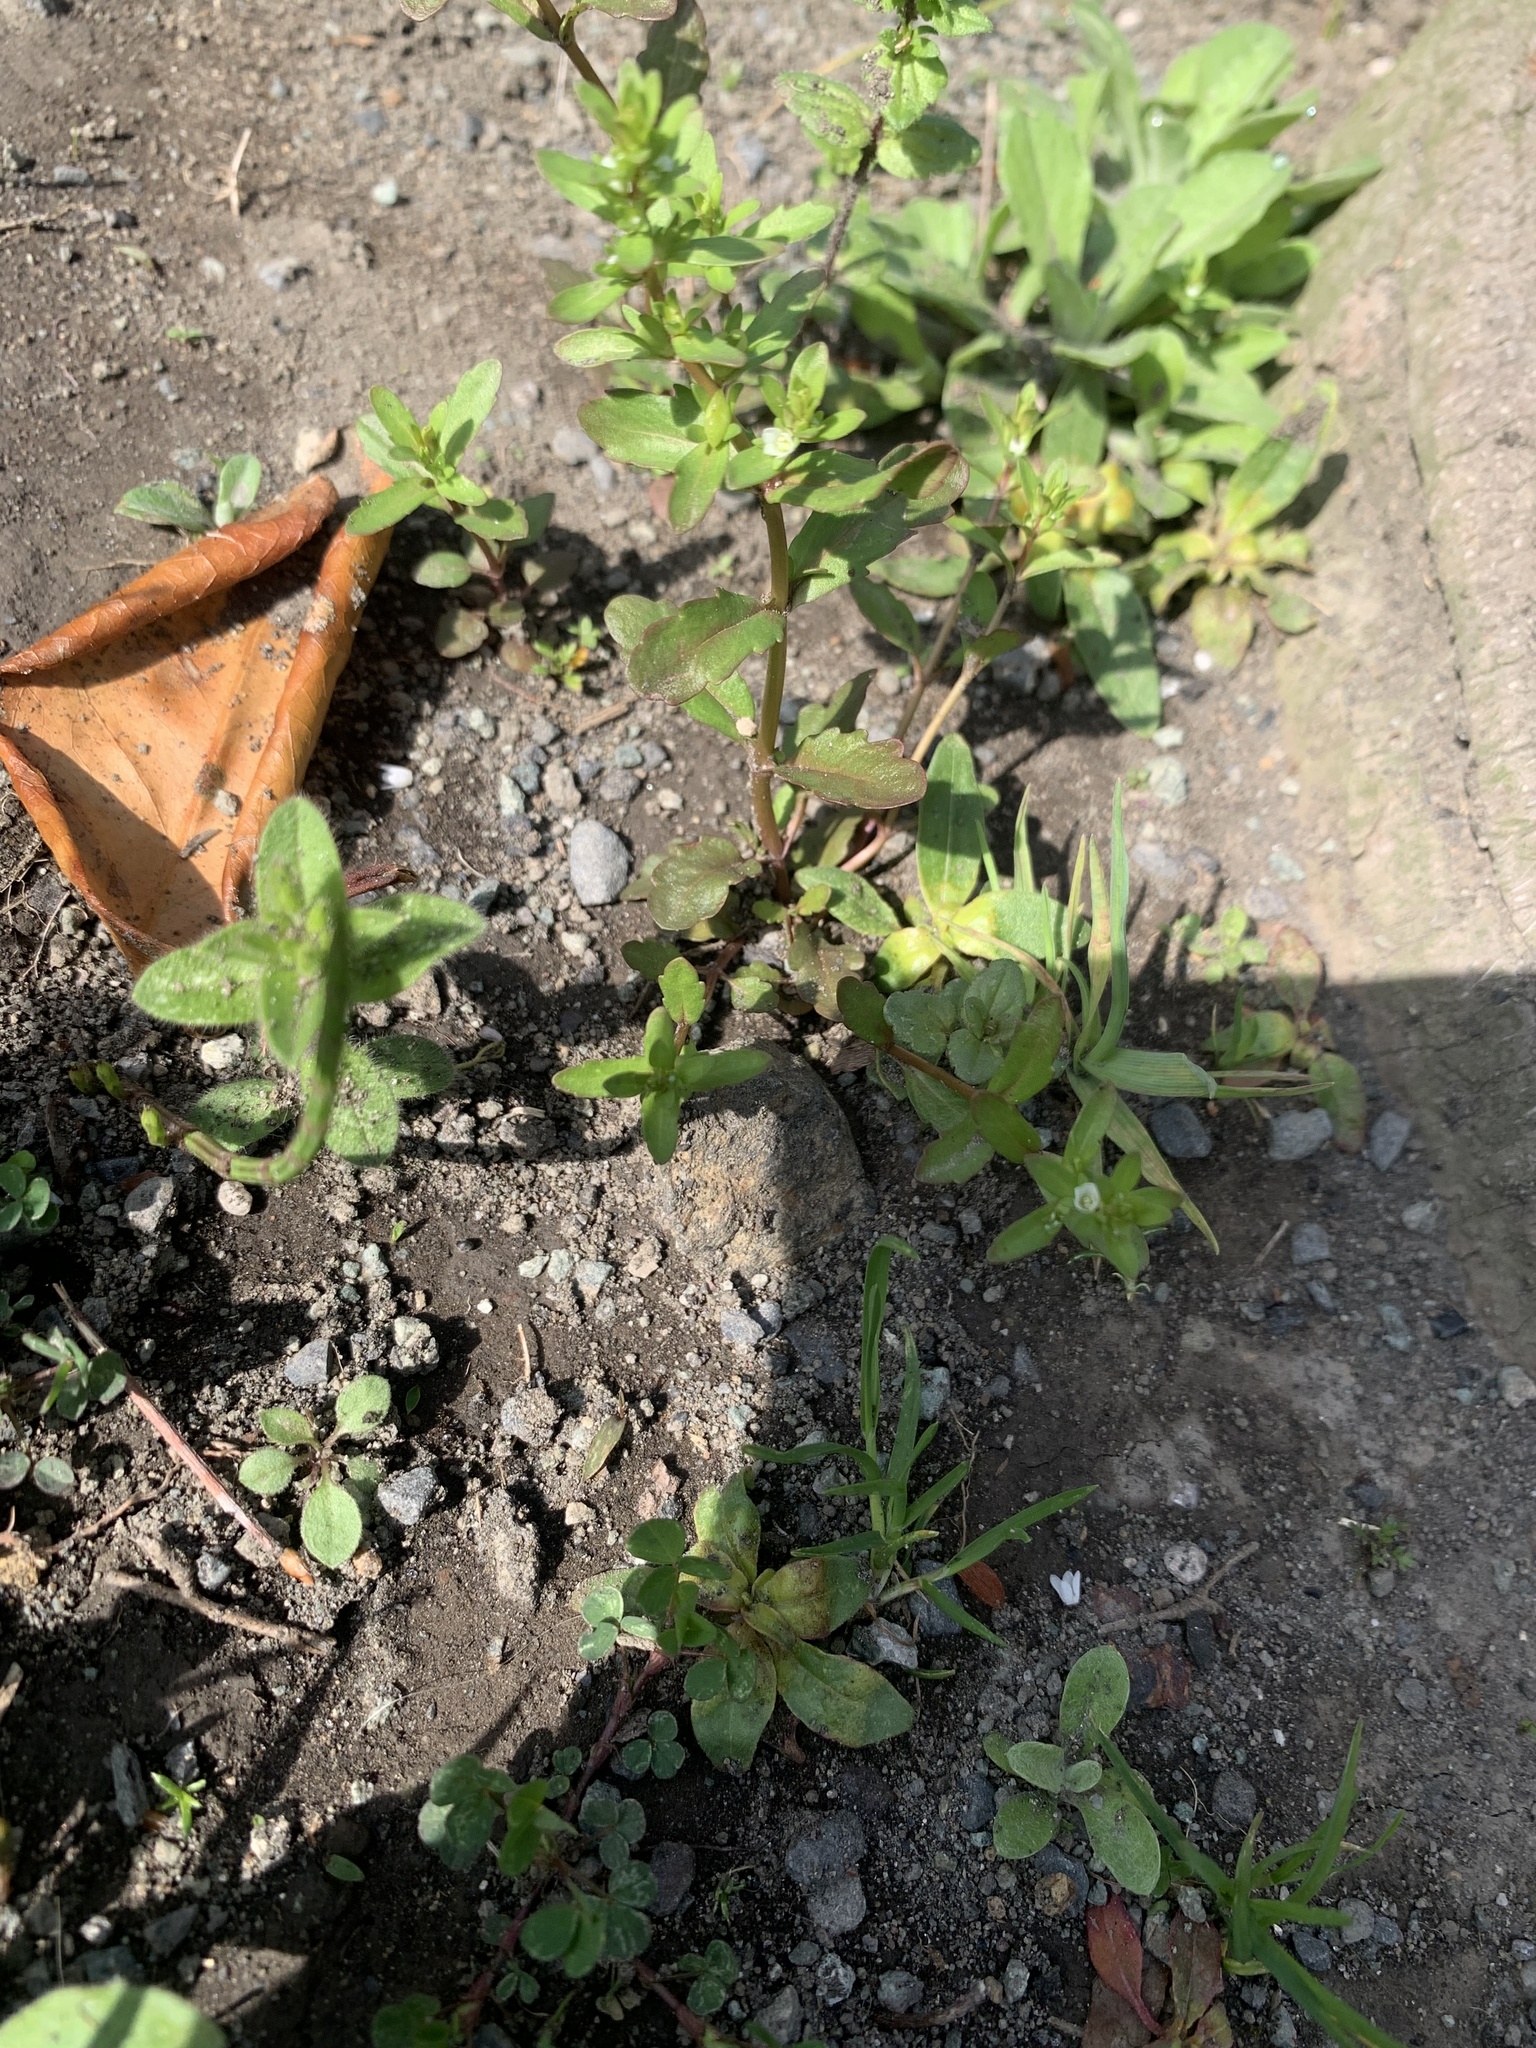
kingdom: Plantae
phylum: Tracheophyta
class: Magnoliopsida
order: Lamiales
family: Plantaginaceae
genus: Veronica
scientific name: Veronica peregrina
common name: Neckweed
